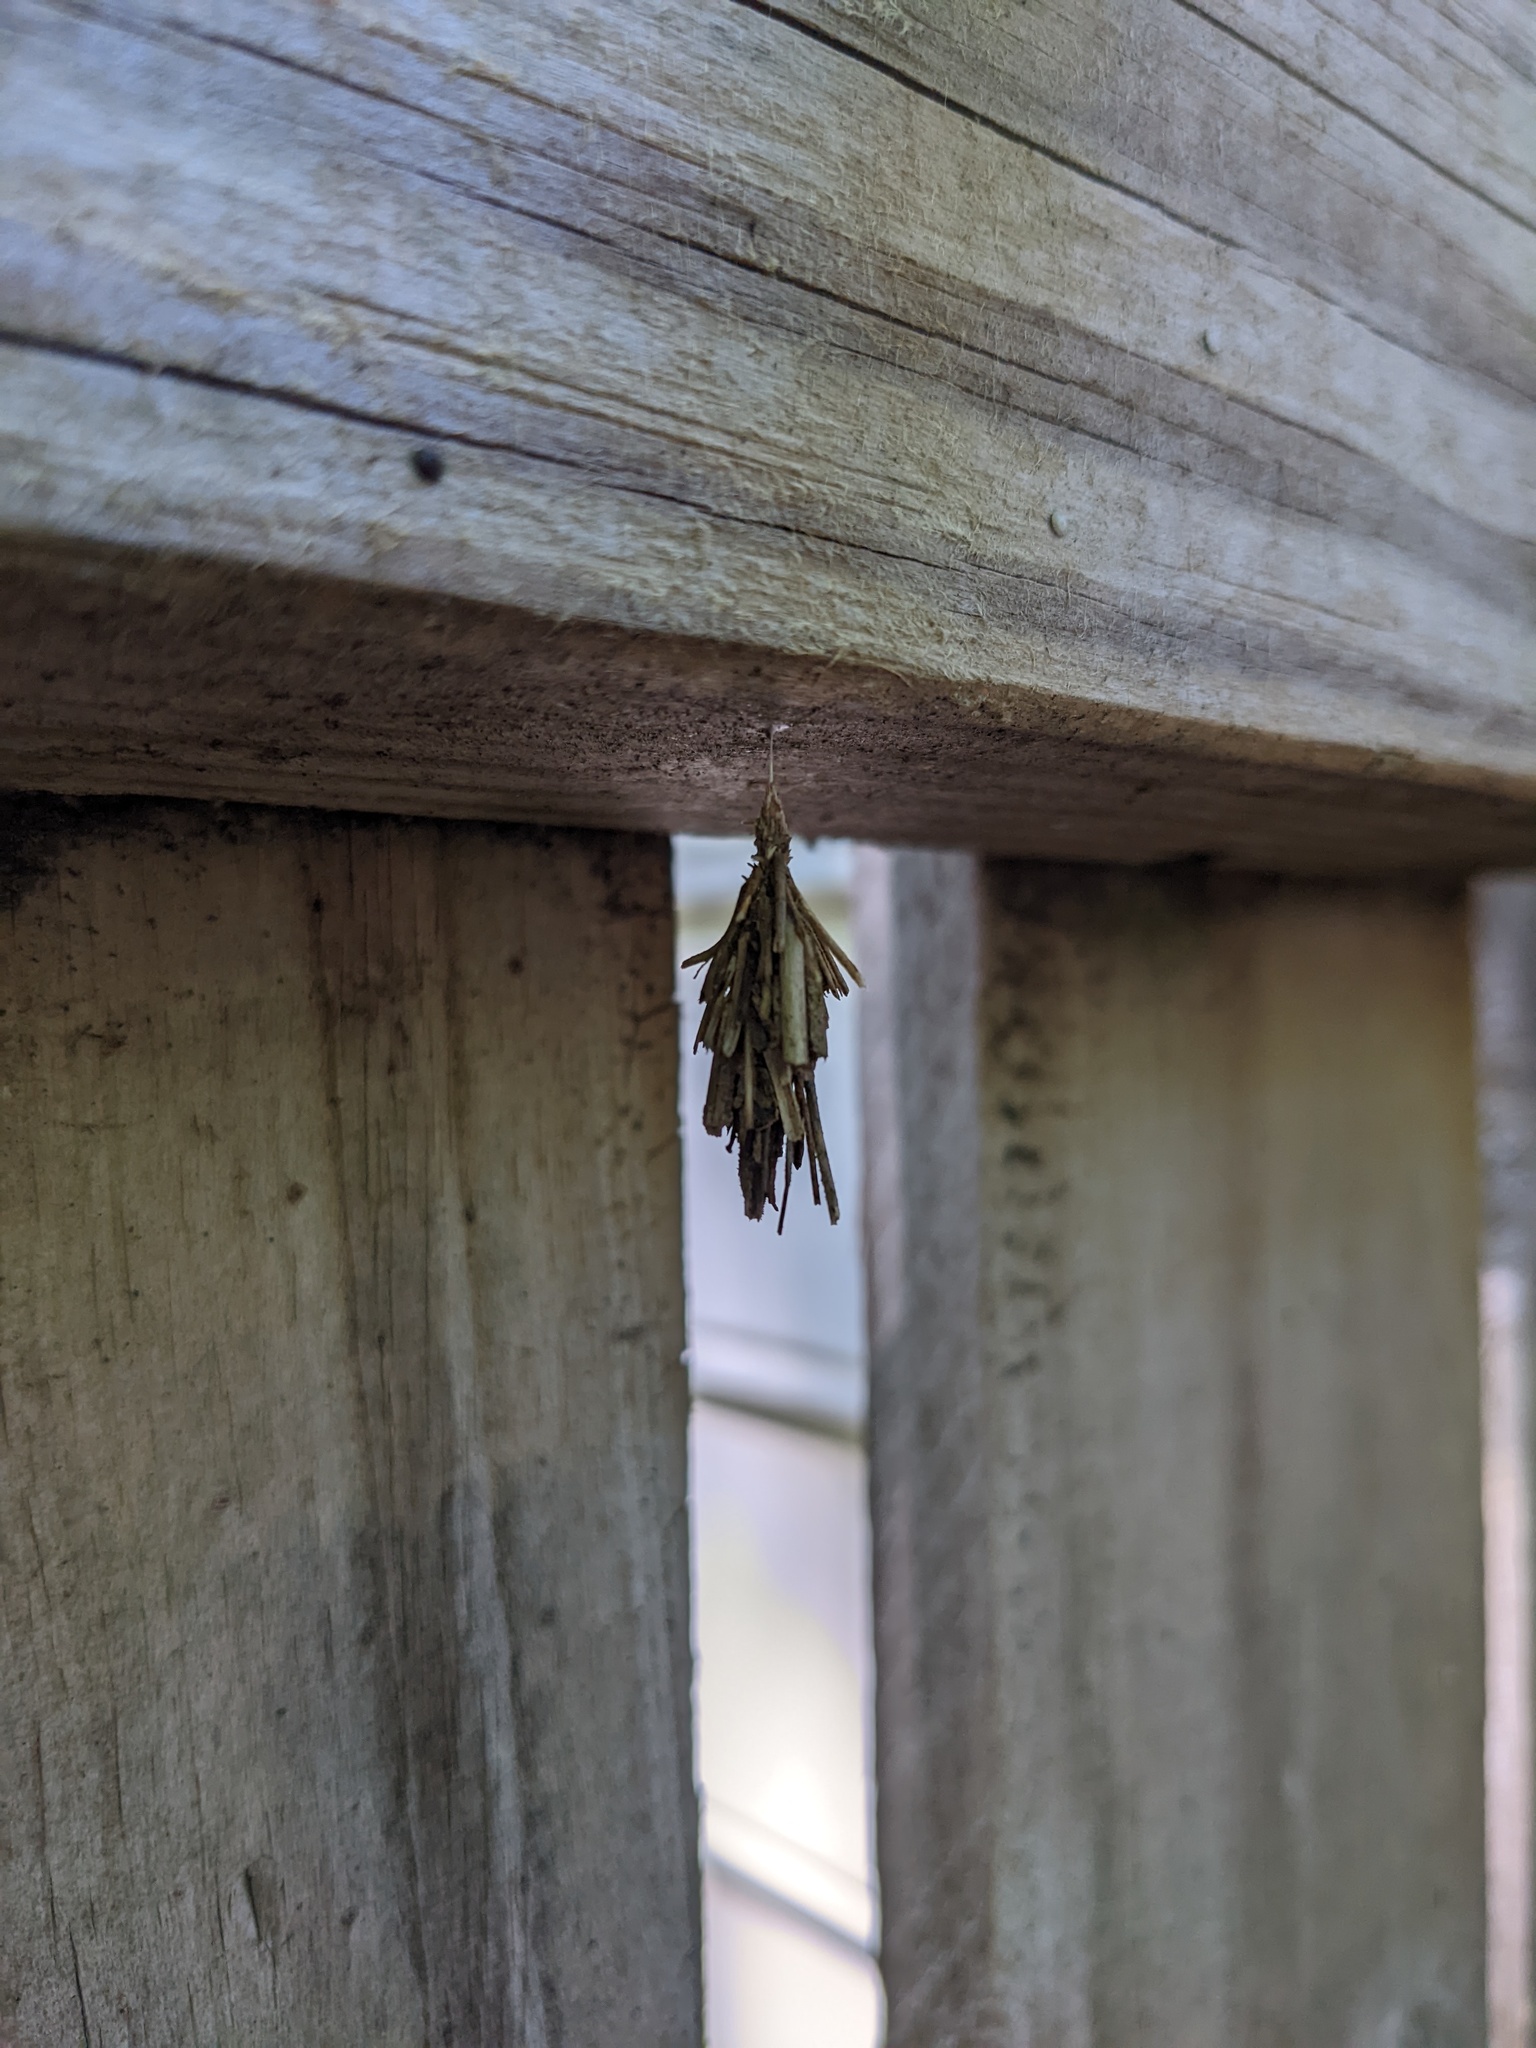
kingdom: Animalia
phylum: Arthropoda
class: Insecta
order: Lepidoptera
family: Psychidae
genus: Psyche
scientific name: Psyche casta
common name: Common sweep
